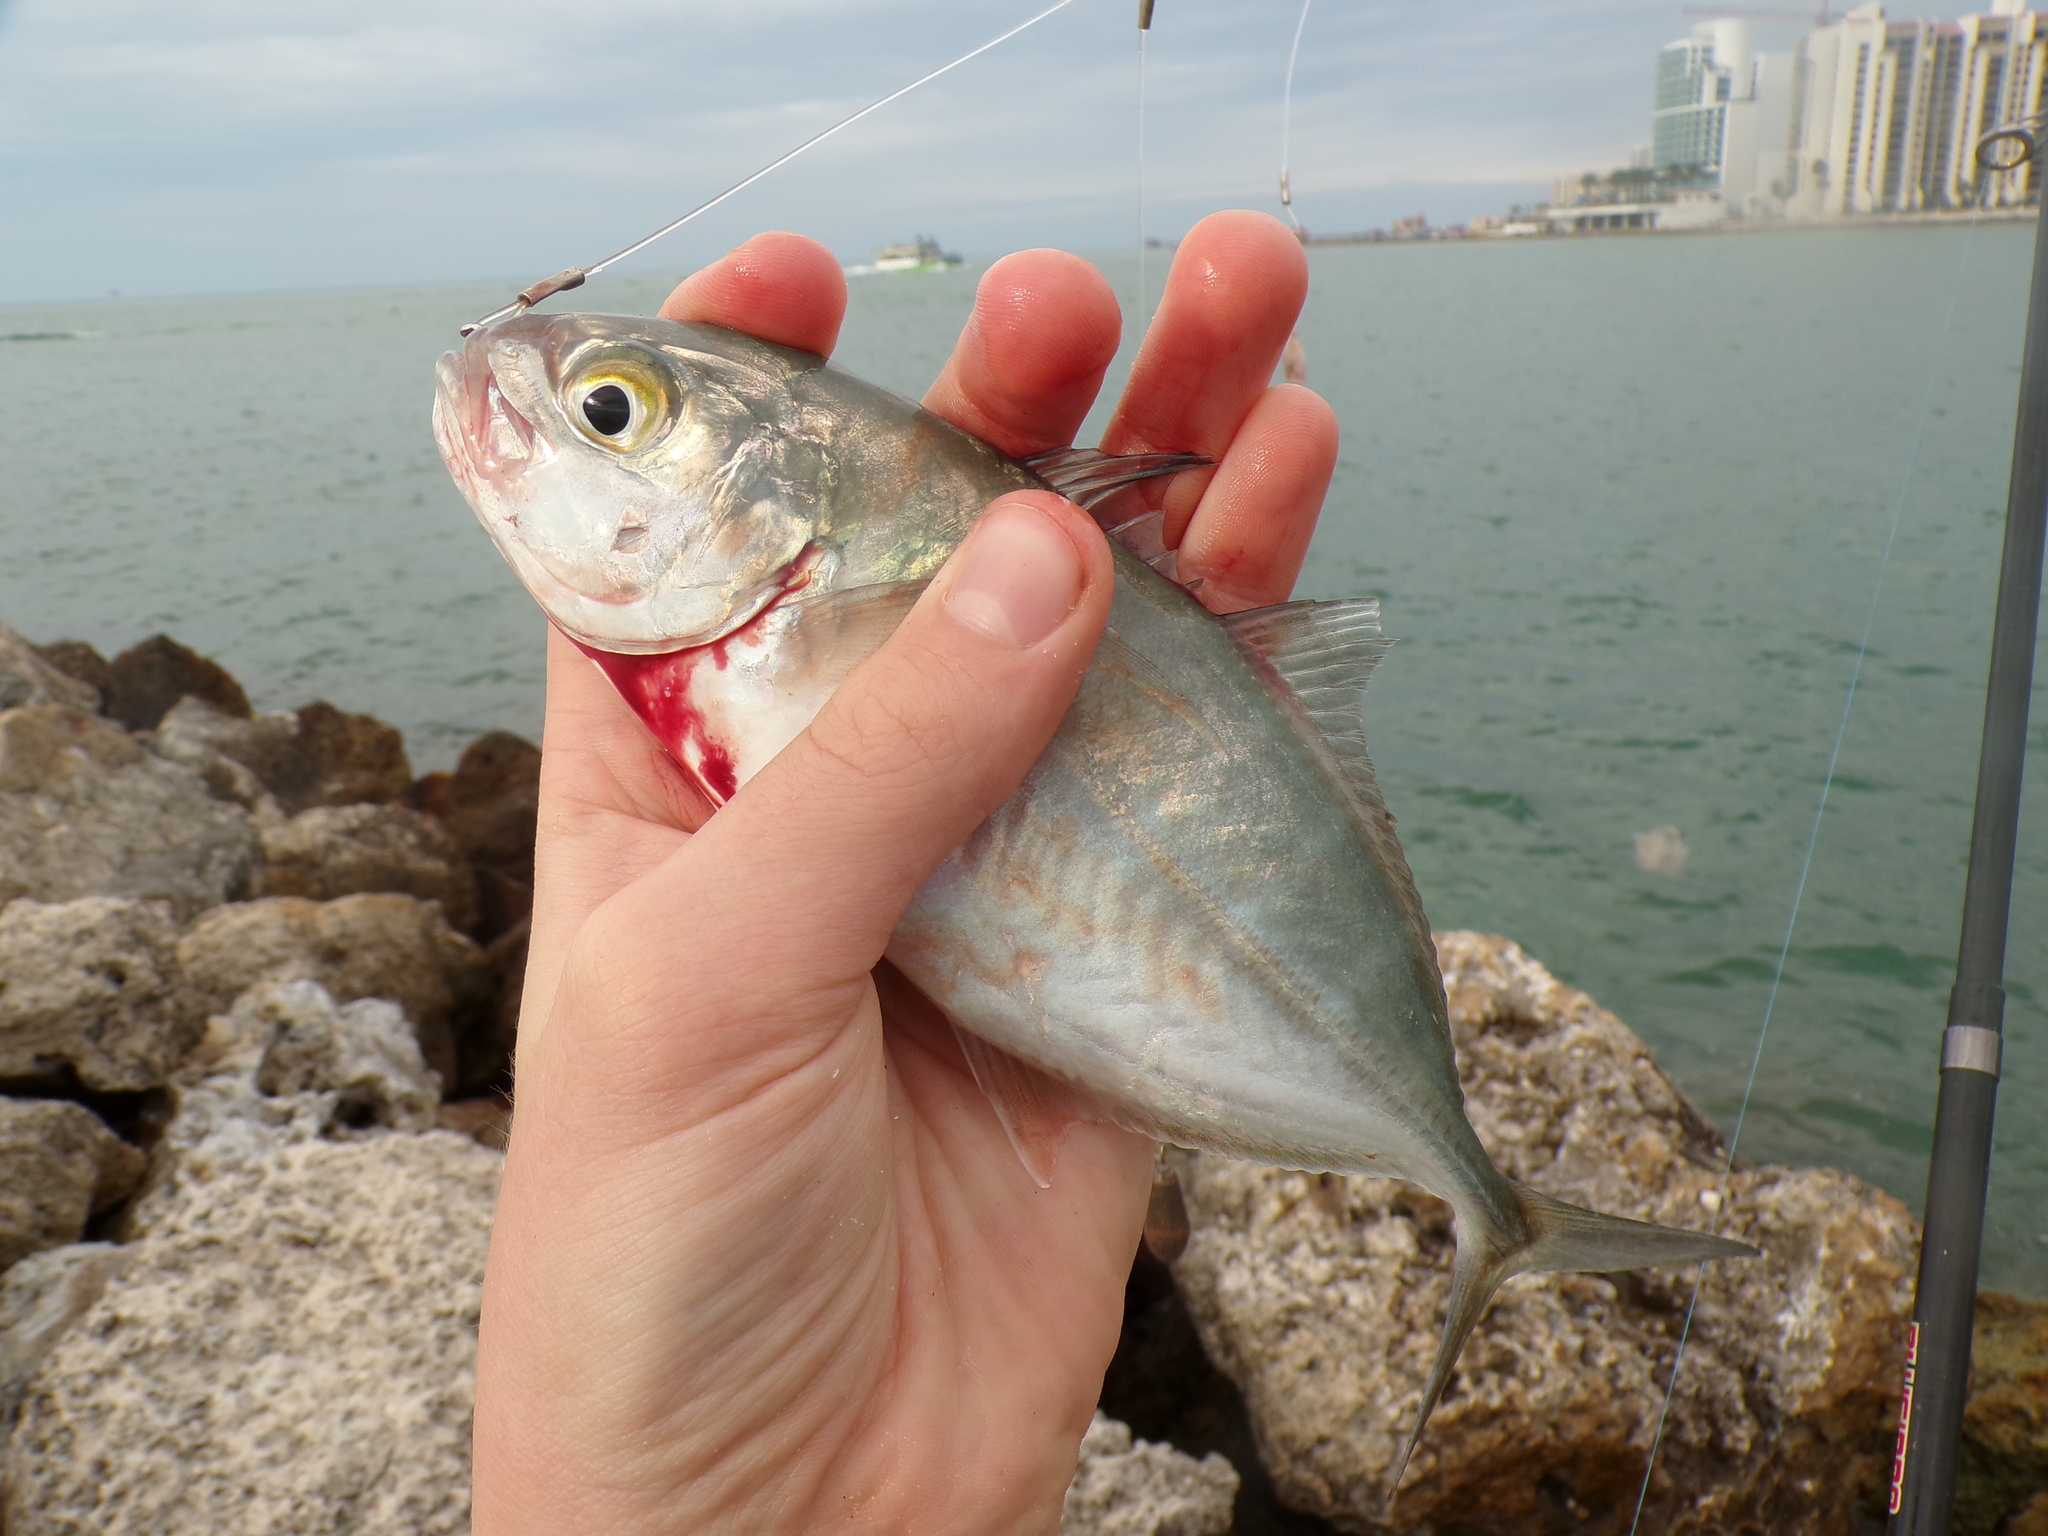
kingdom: Animalia
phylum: Chordata
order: Perciformes
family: Carangidae
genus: Caranx
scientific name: Caranx crysos
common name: Blue runner
